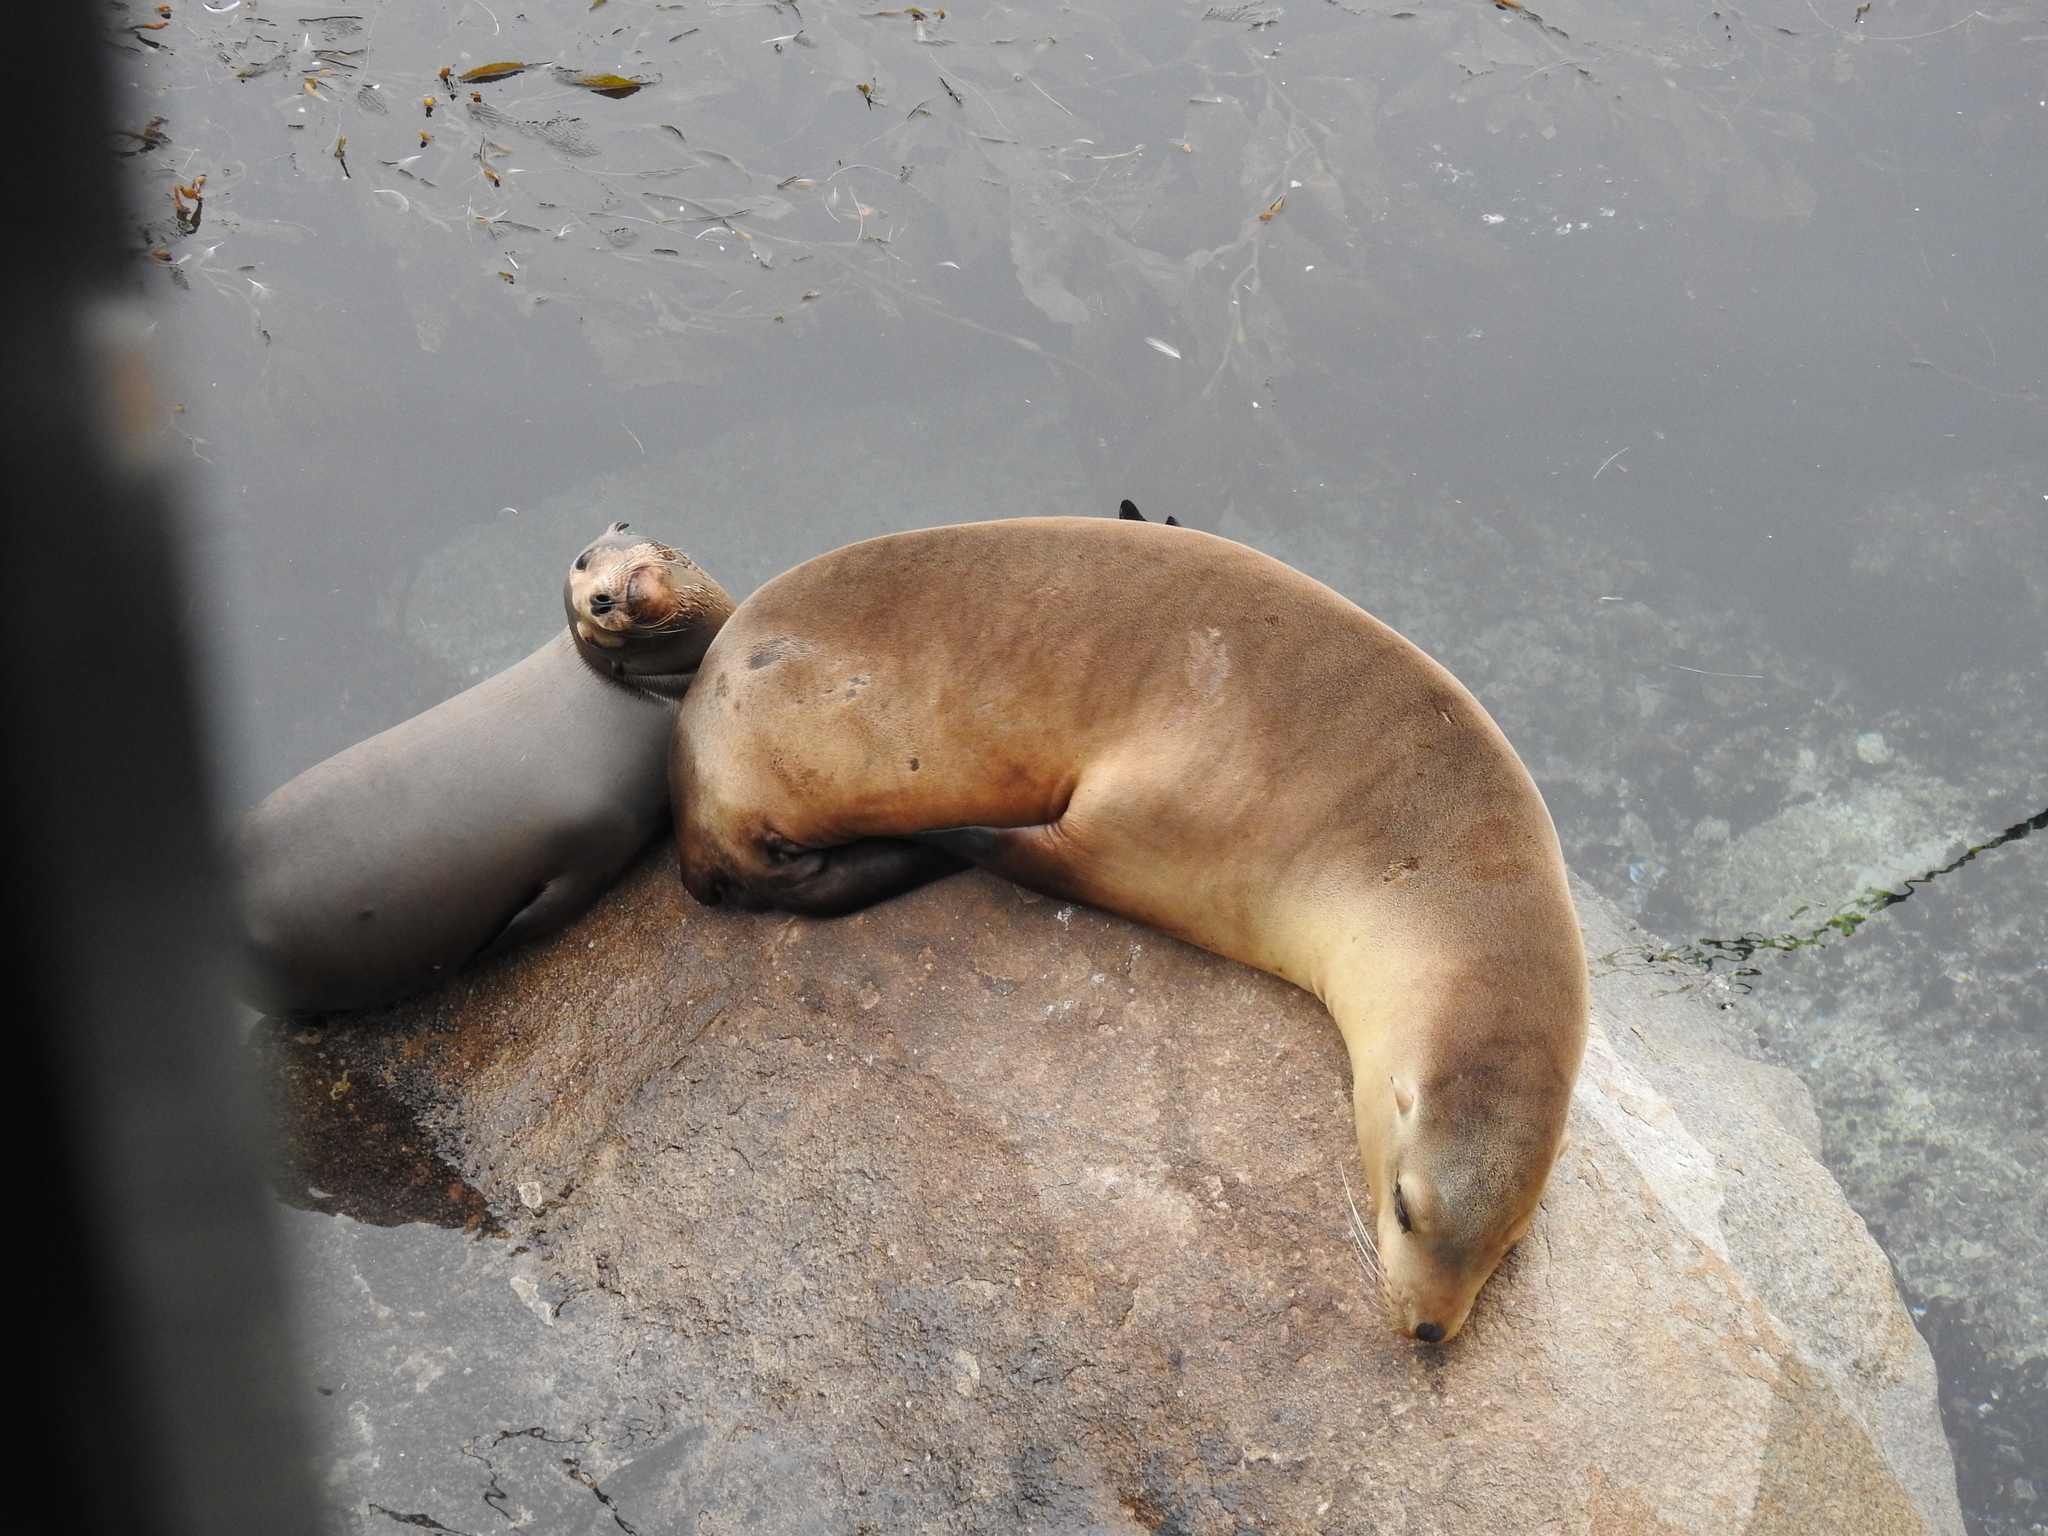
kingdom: Animalia
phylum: Chordata
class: Mammalia
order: Carnivora
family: Otariidae
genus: Zalophus
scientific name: Zalophus californianus
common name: California sea lion
